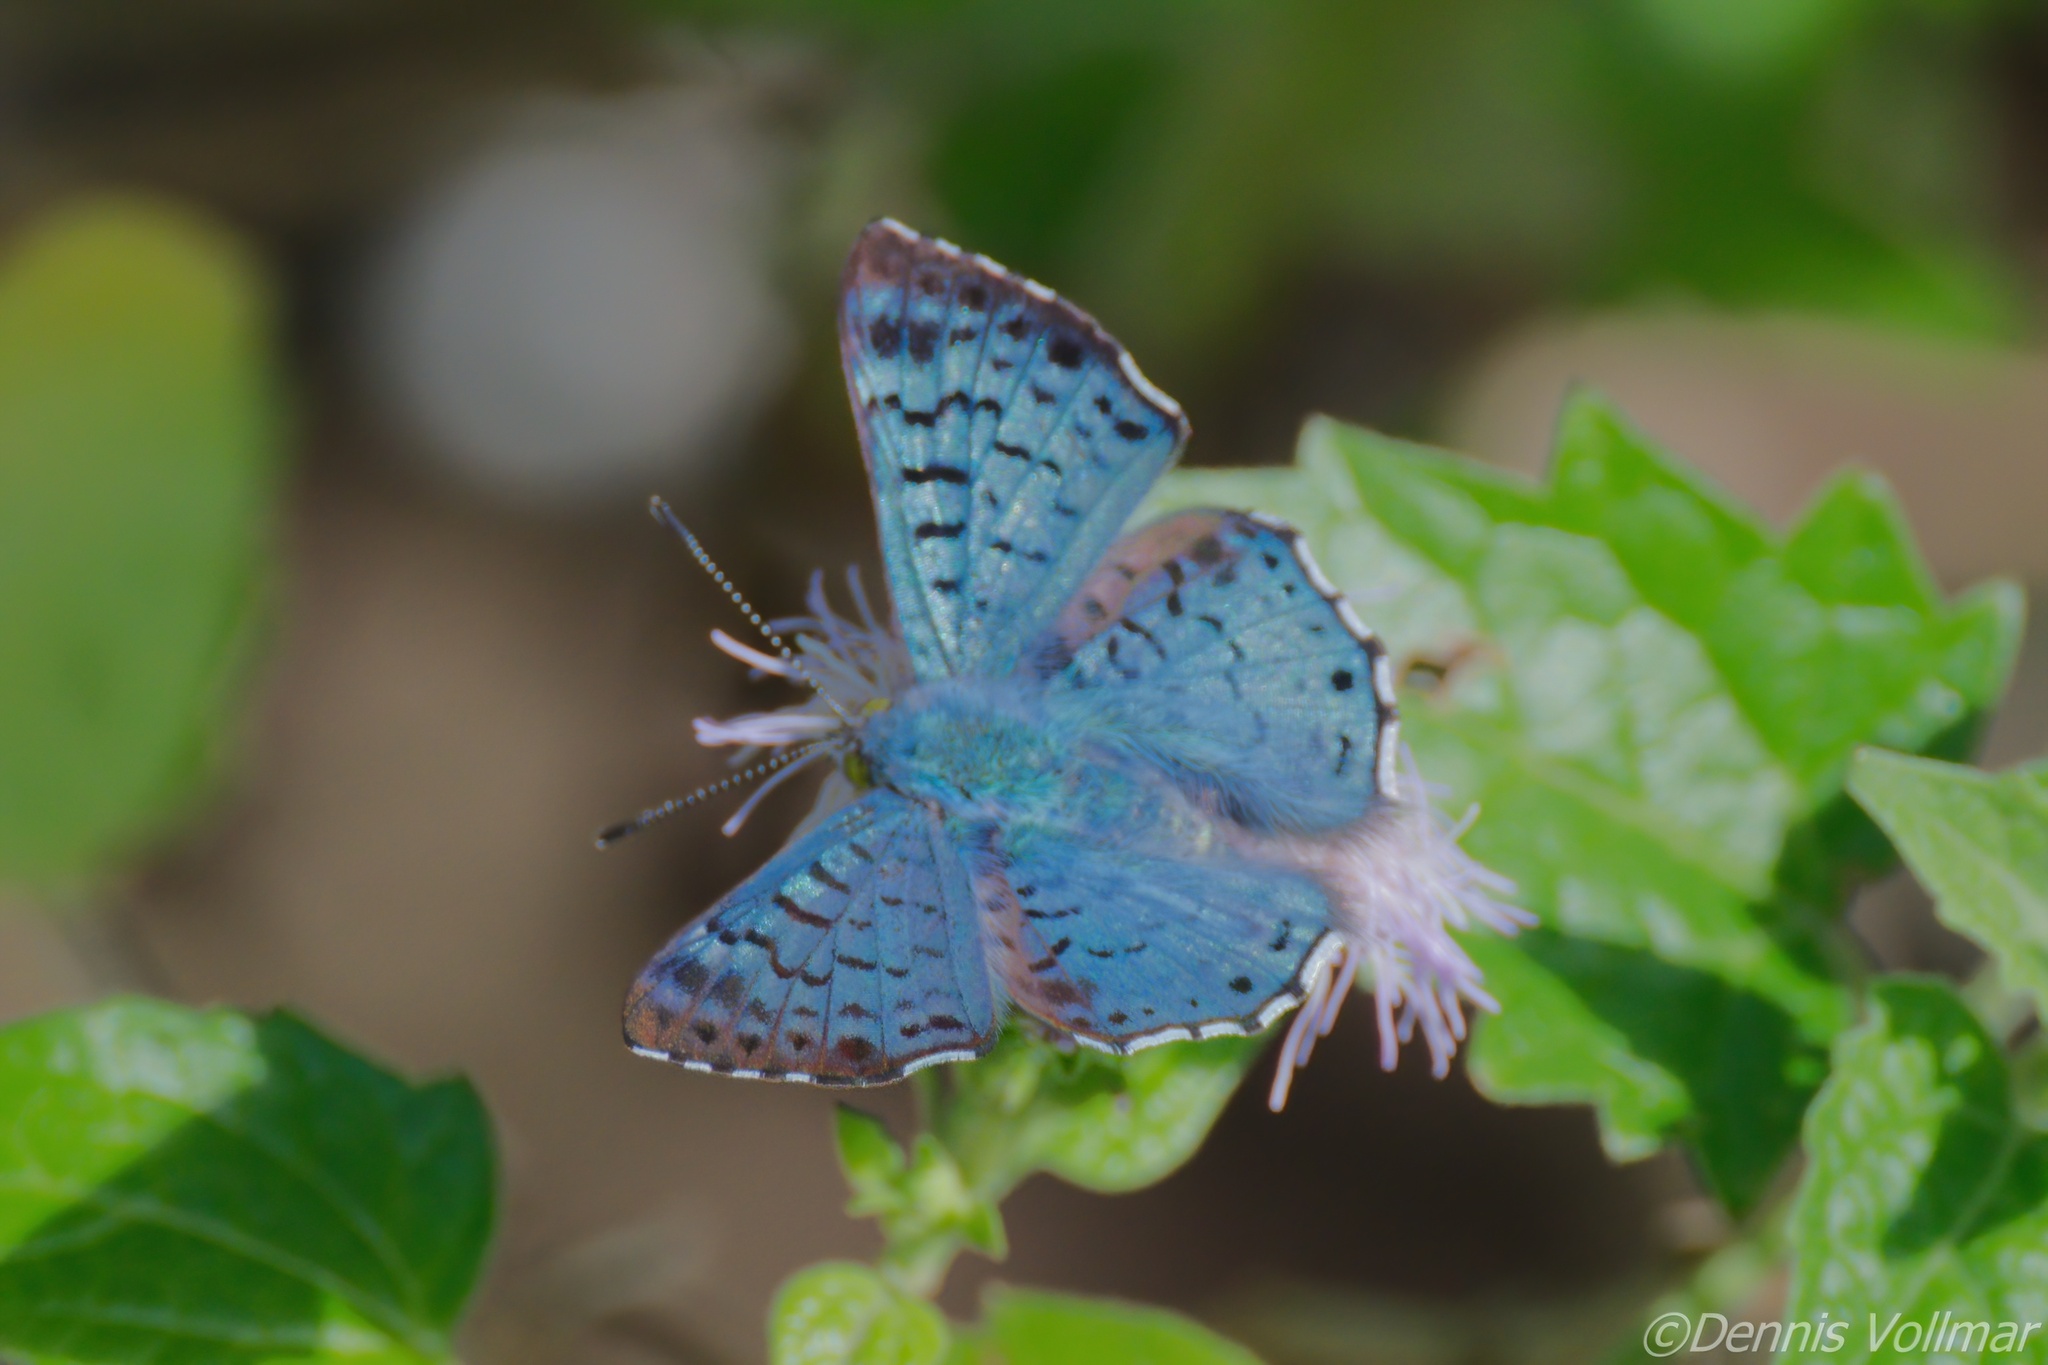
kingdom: Animalia
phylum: Arthropoda
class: Insecta
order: Lepidoptera
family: Riodinidae
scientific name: Riodinidae
